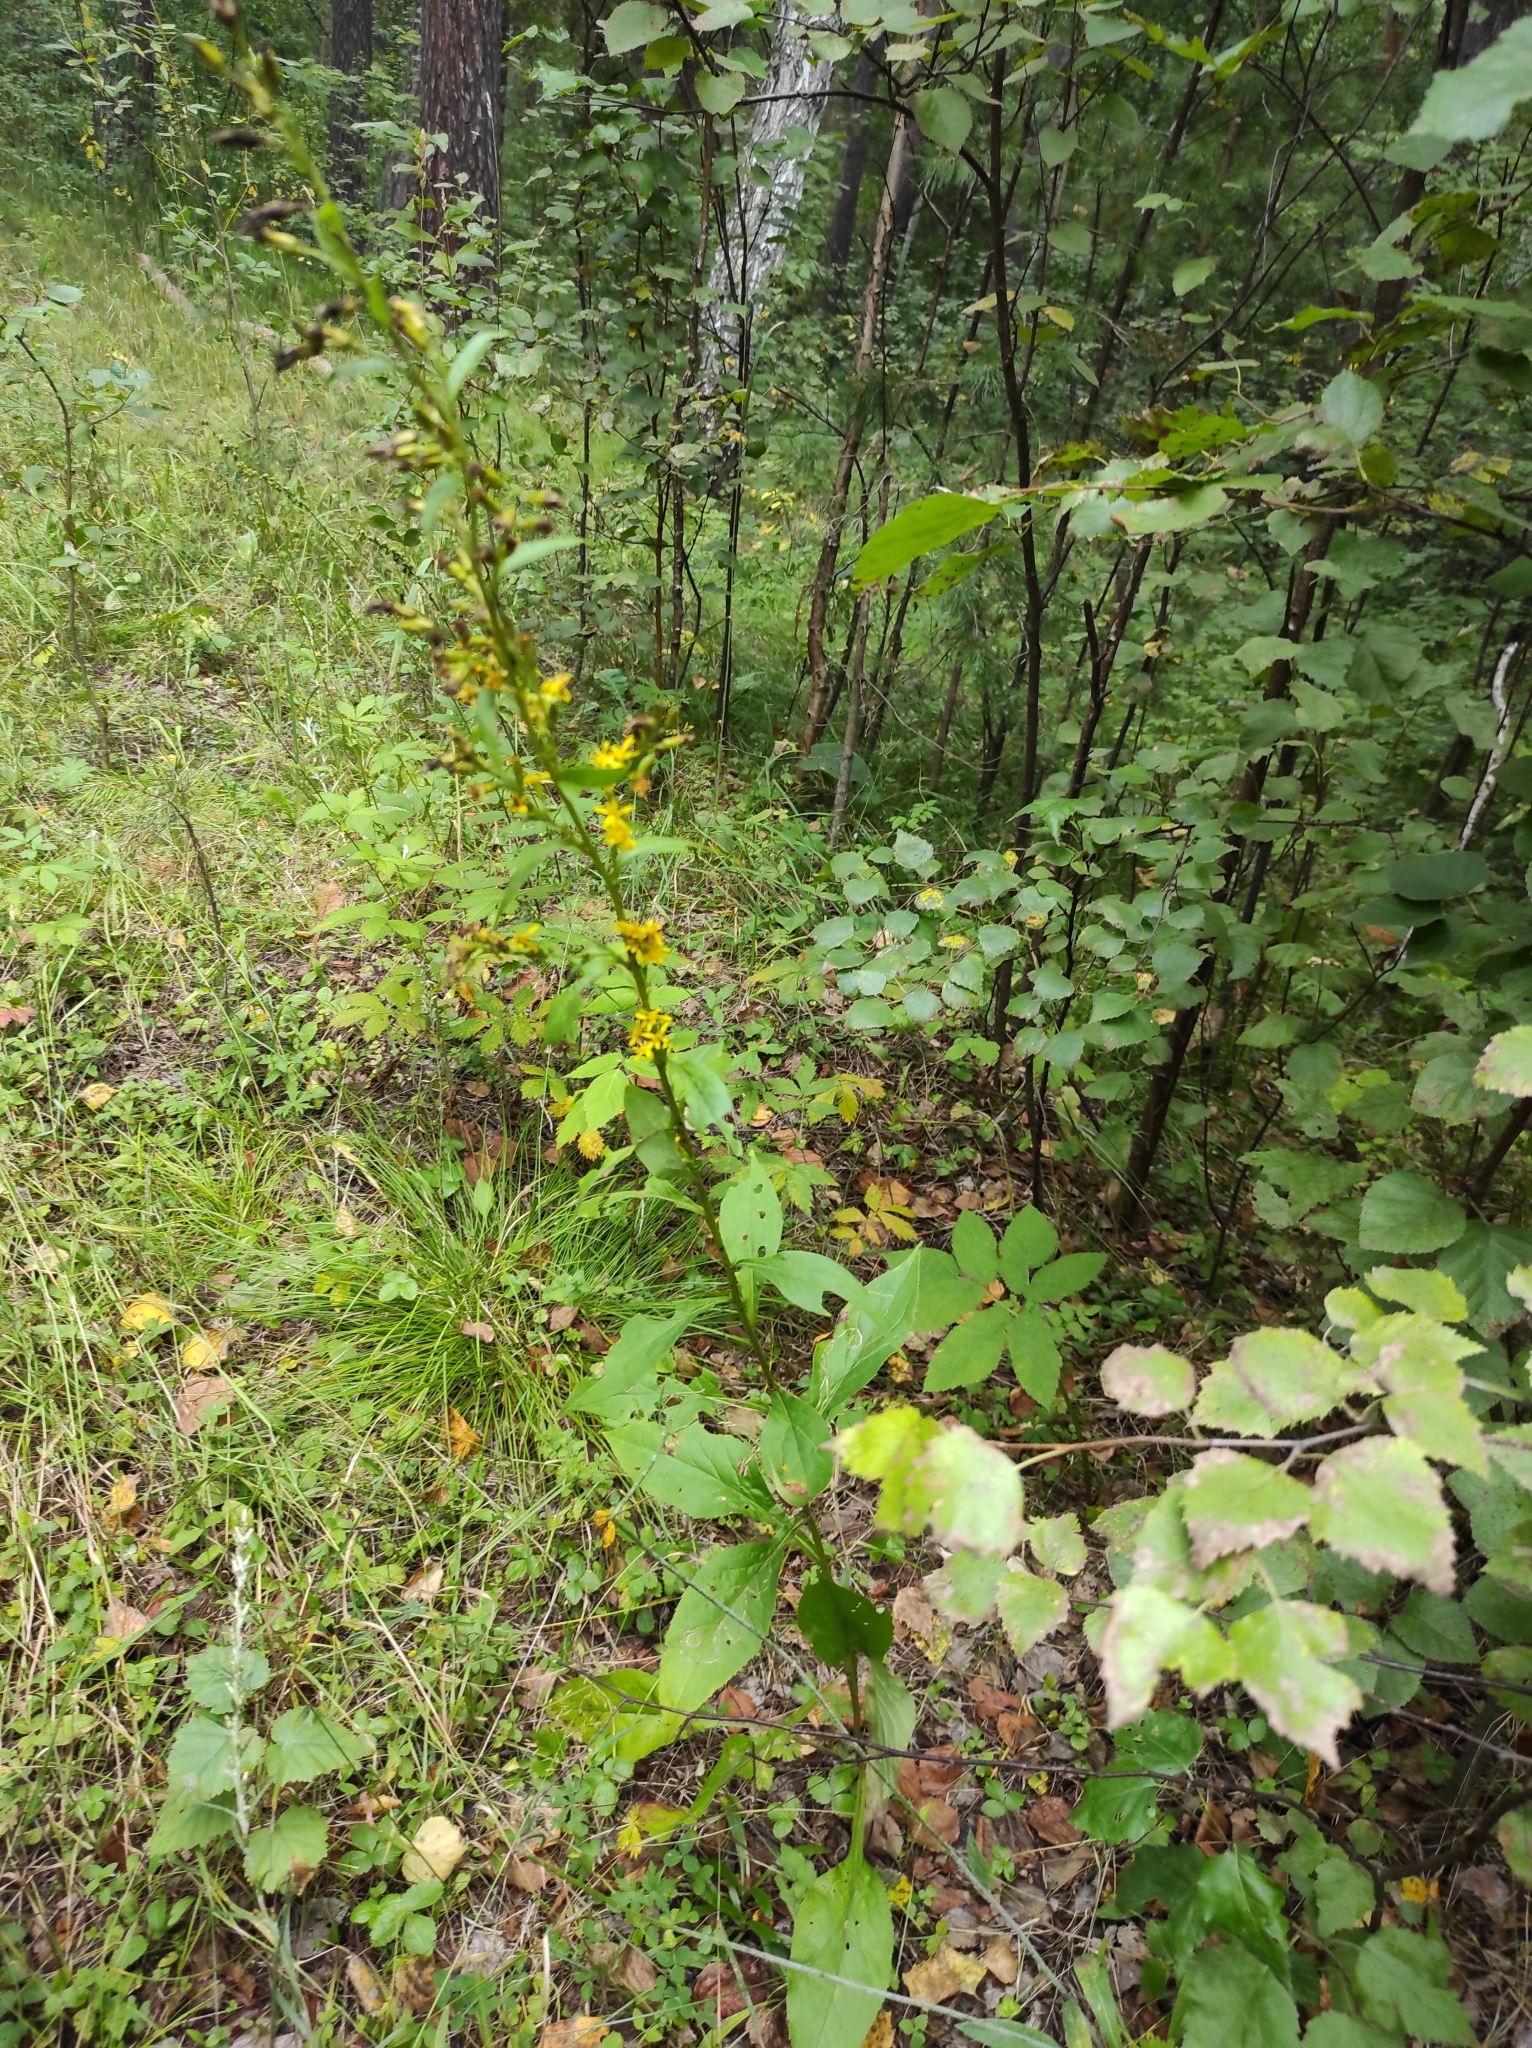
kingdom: Plantae
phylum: Tracheophyta
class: Magnoliopsida
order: Asterales
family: Asteraceae
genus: Solidago
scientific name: Solidago virgaurea
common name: Goldenrod
